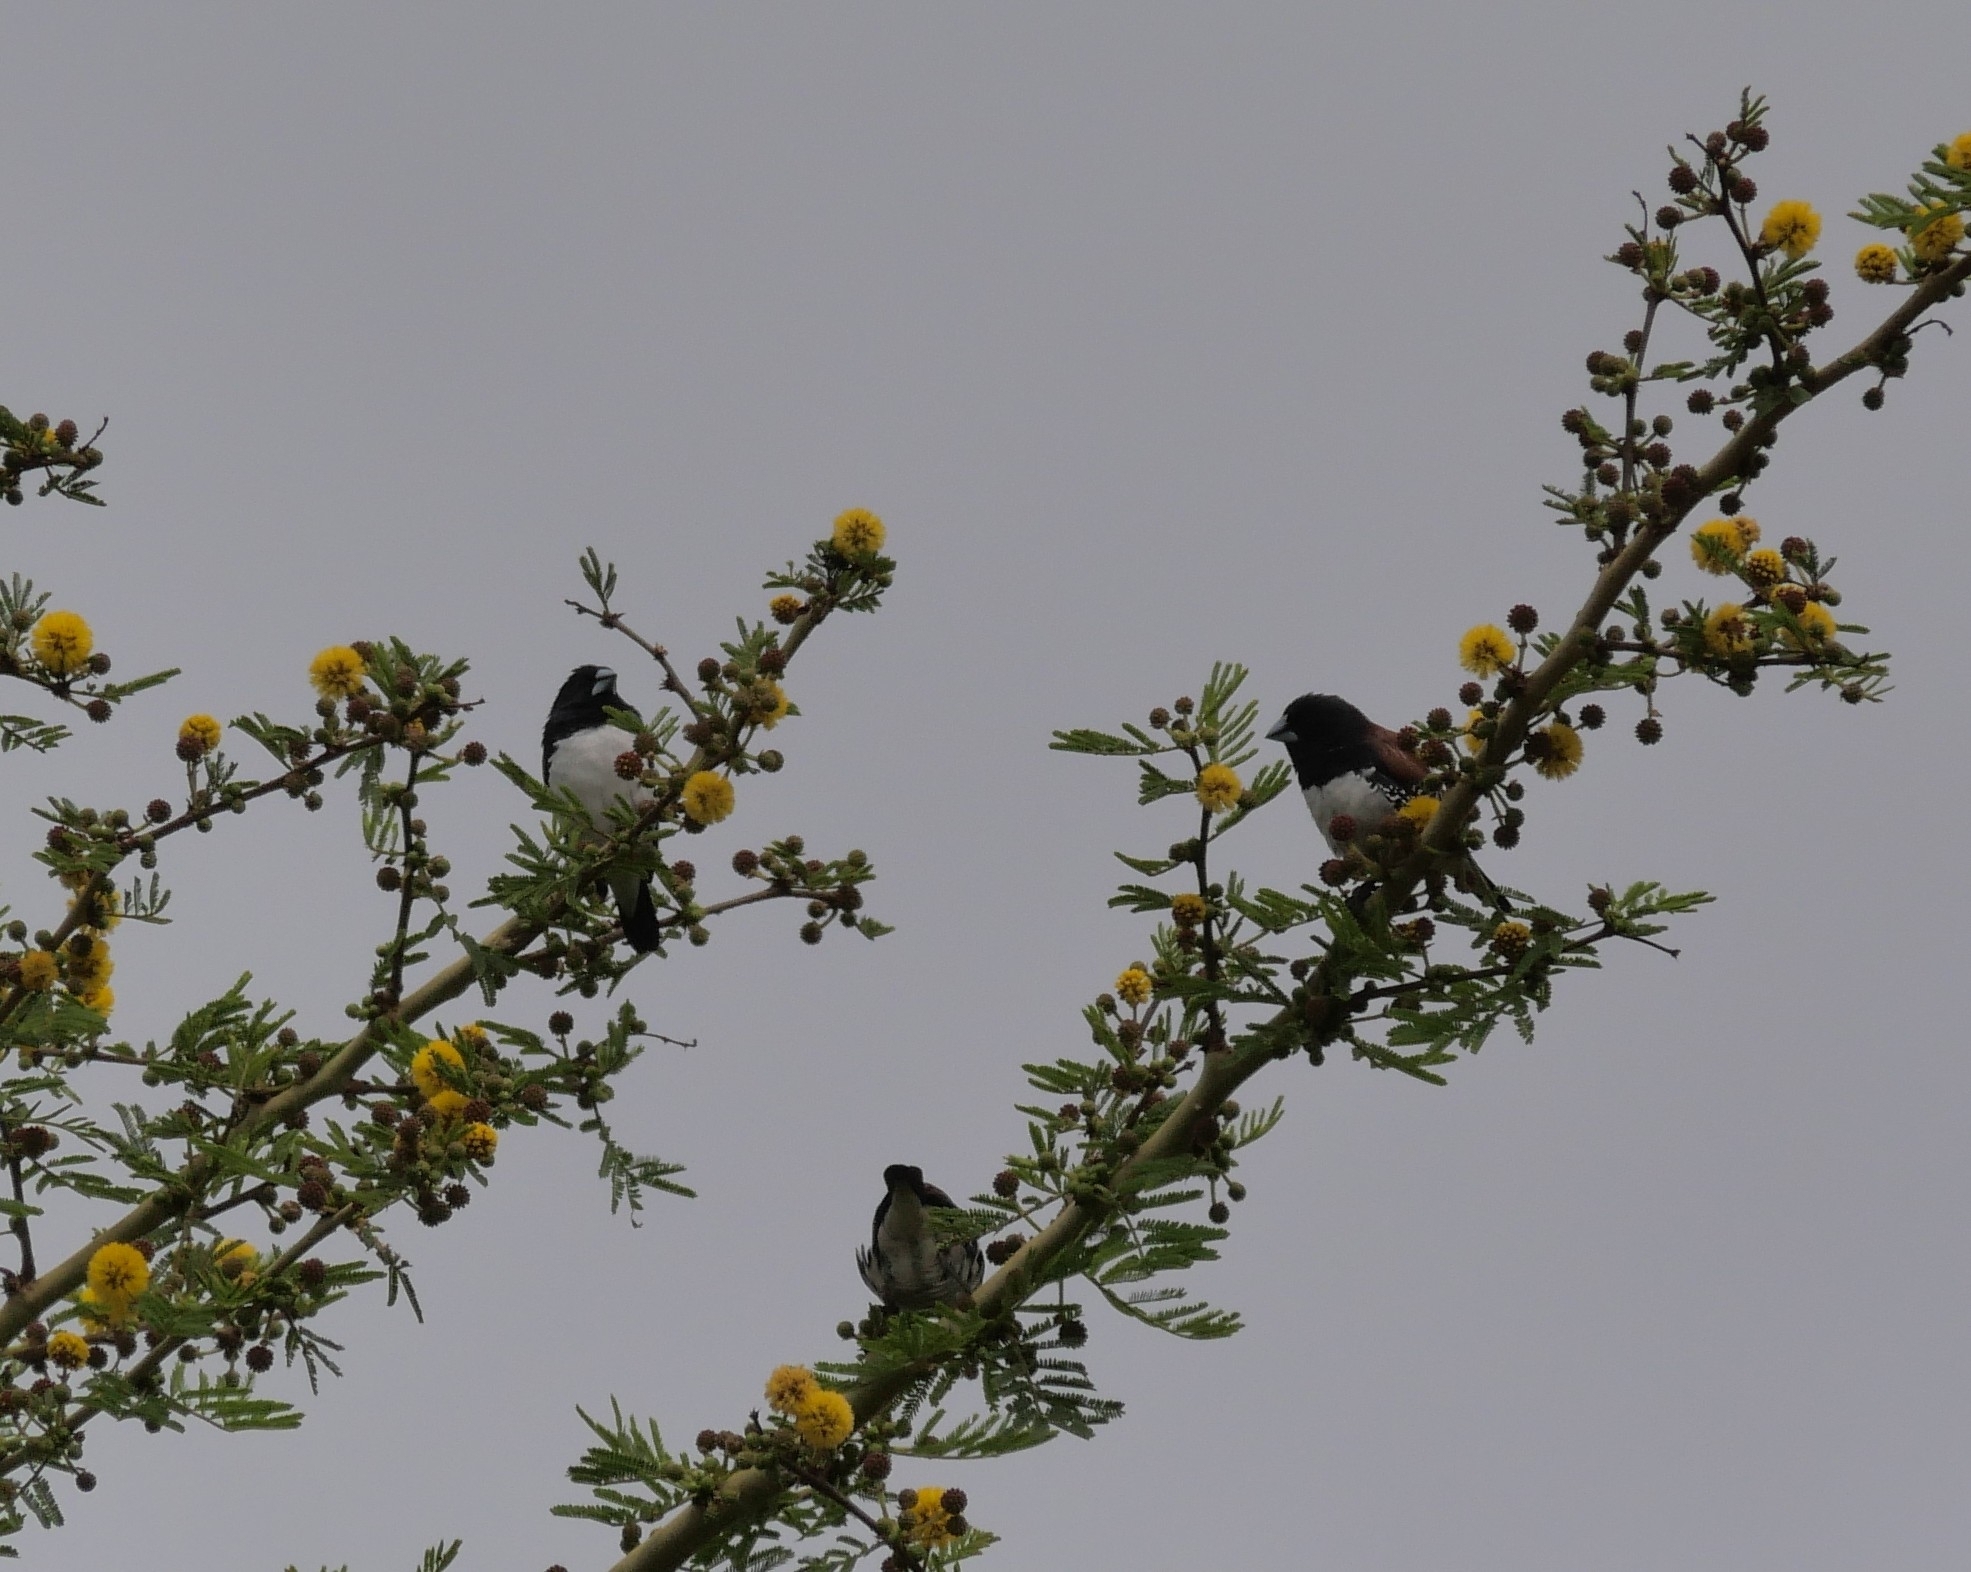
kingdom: Animalia
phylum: Chordata
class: Aves
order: Passeriformes
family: Estrildidae
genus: Lonchura
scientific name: Lonchura nigriceps
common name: Red-backed mannikin
